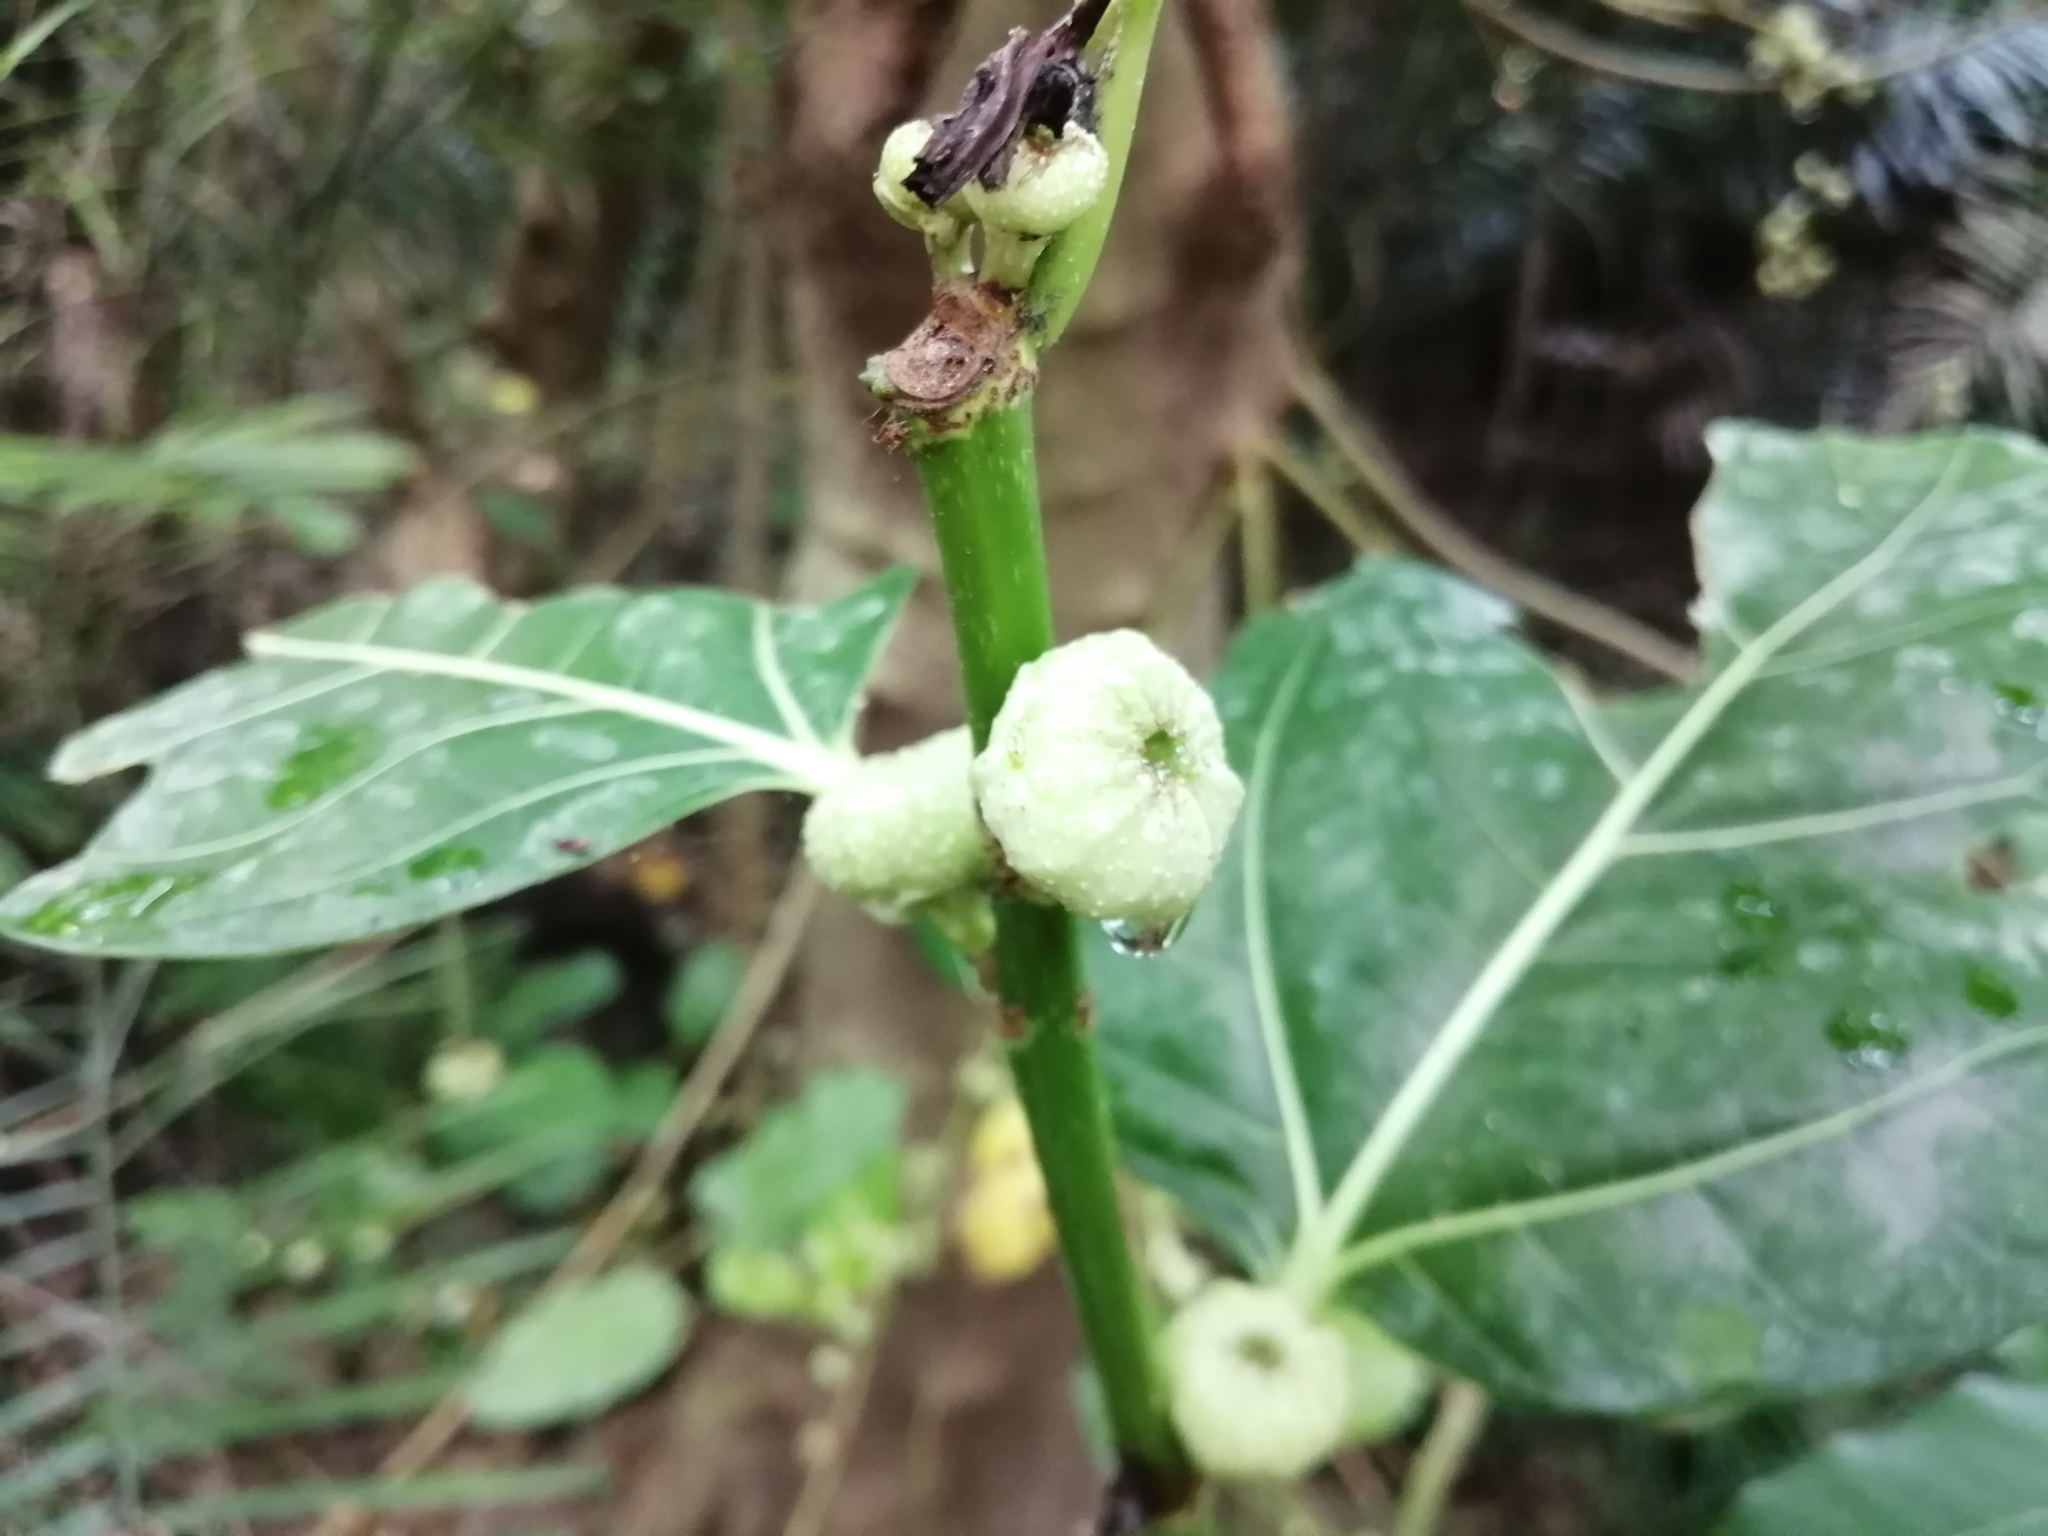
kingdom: Plantae
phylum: Tracheophyta
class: Magnoliopsida
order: Rosales
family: Moraceae
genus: Ficus
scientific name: Ficus septica
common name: Septic fig
